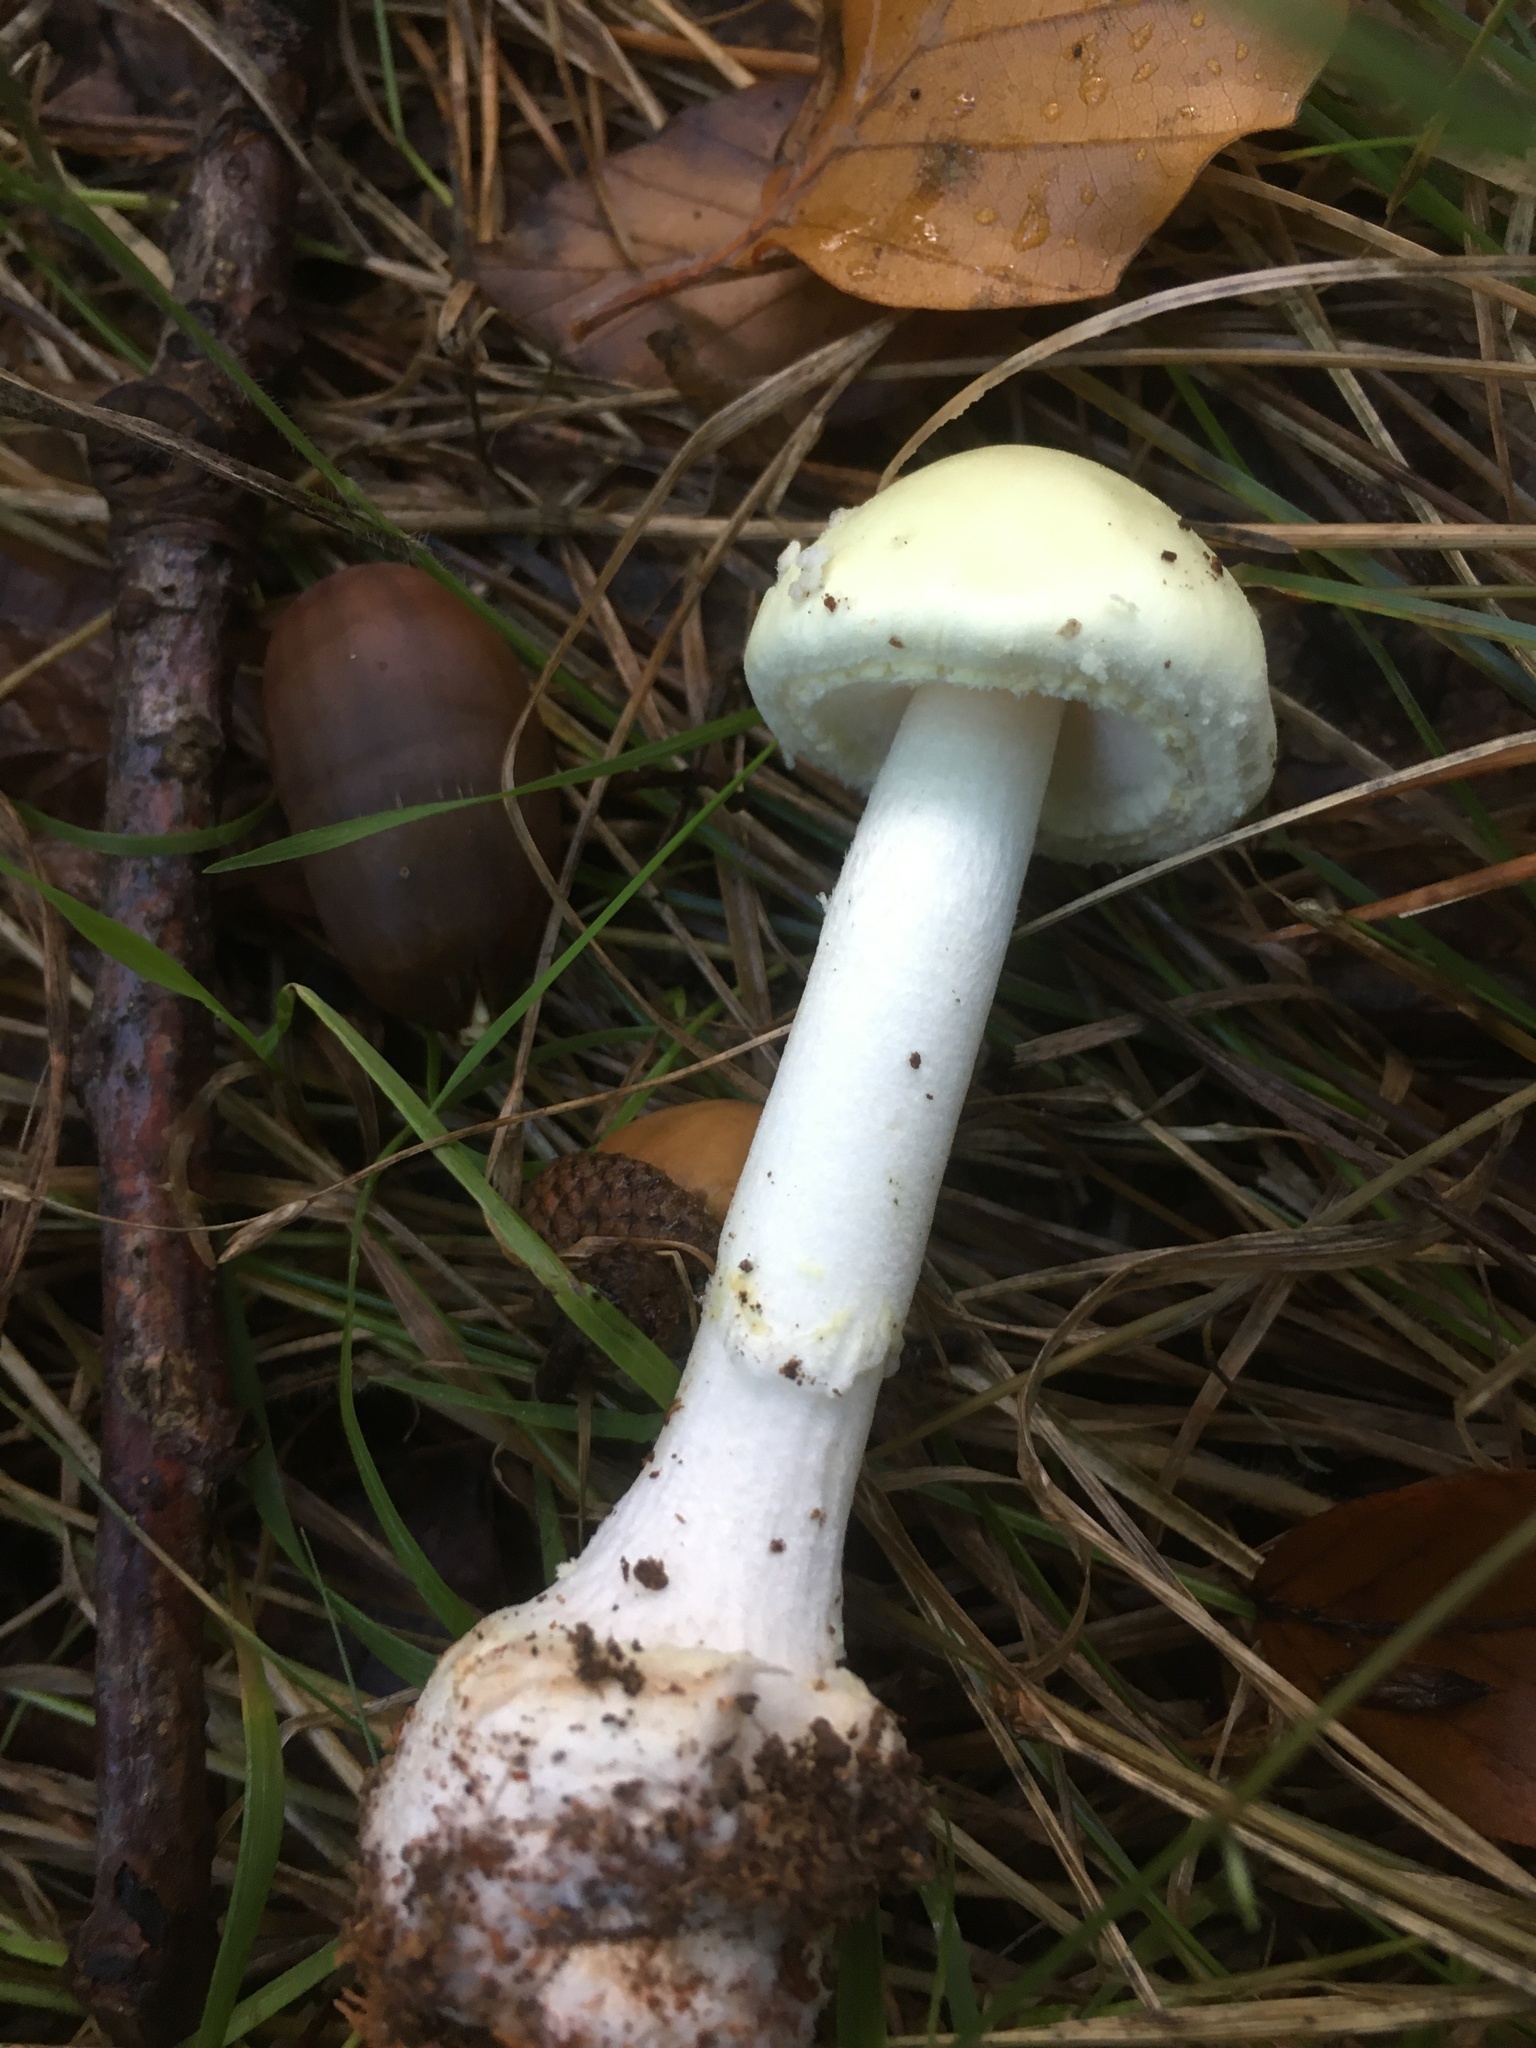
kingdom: Fungi
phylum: Basidiomycota
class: Agaricomycetes
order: Agaricales
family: Amanitaceae
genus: Amanita
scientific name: Amanita citrina
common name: False death-cap
